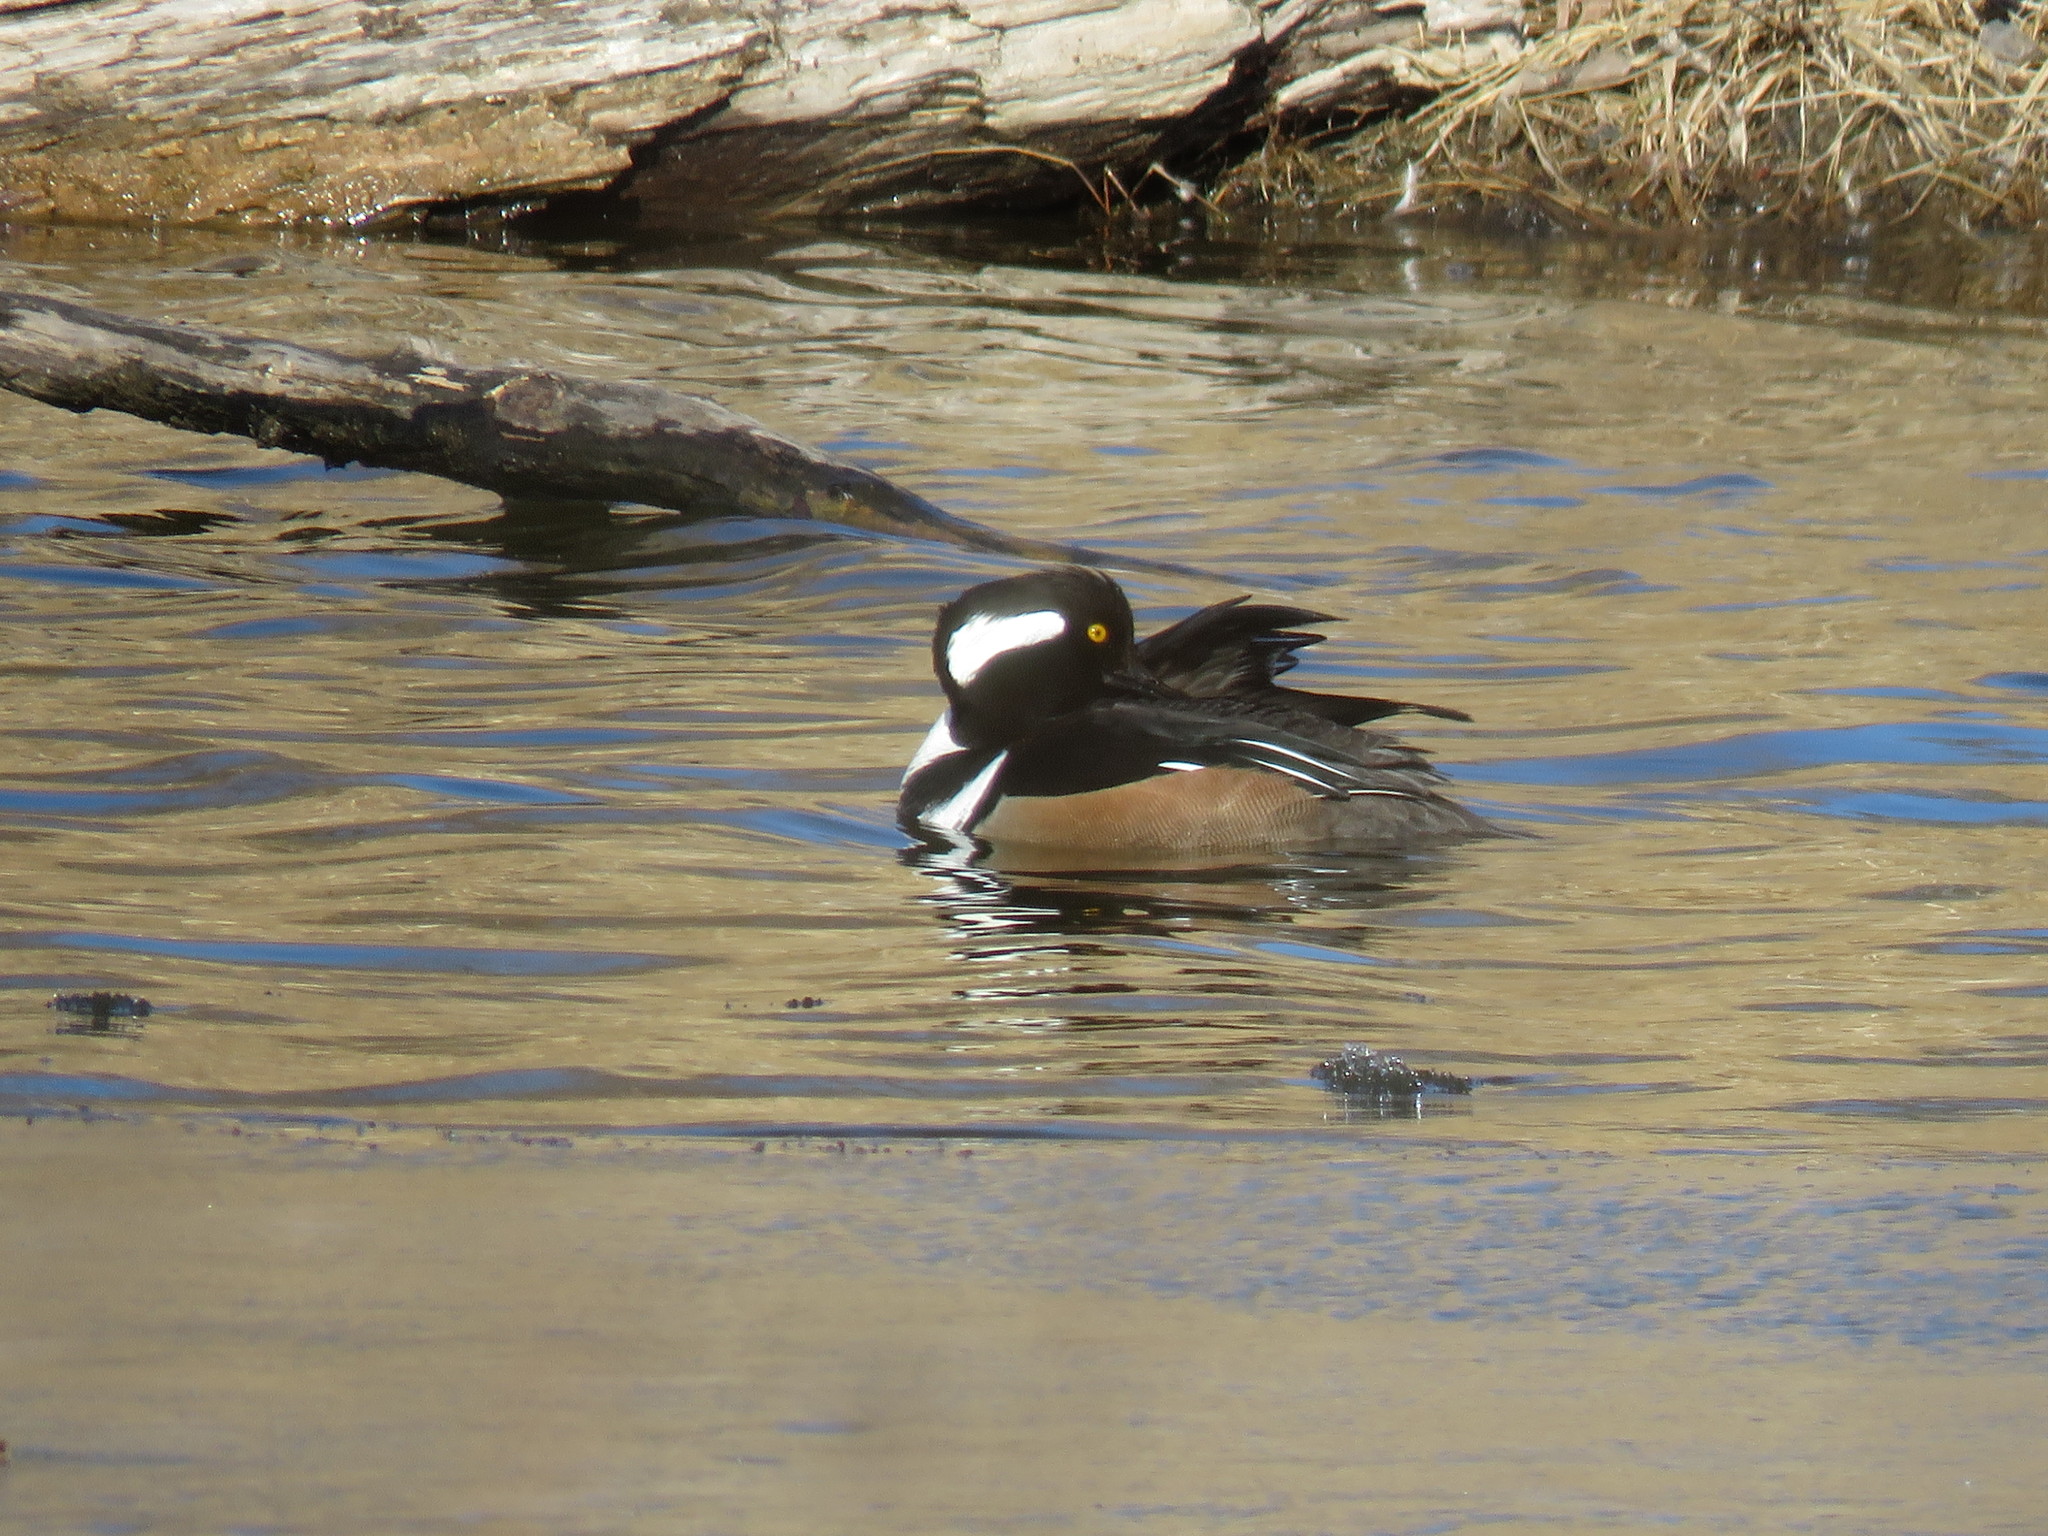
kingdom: Animalia
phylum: Chordata
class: Aves
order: Anseriformes
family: Anatidae
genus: Lophodytes
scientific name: Lophodytes cucullatus
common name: Hooded merganser
